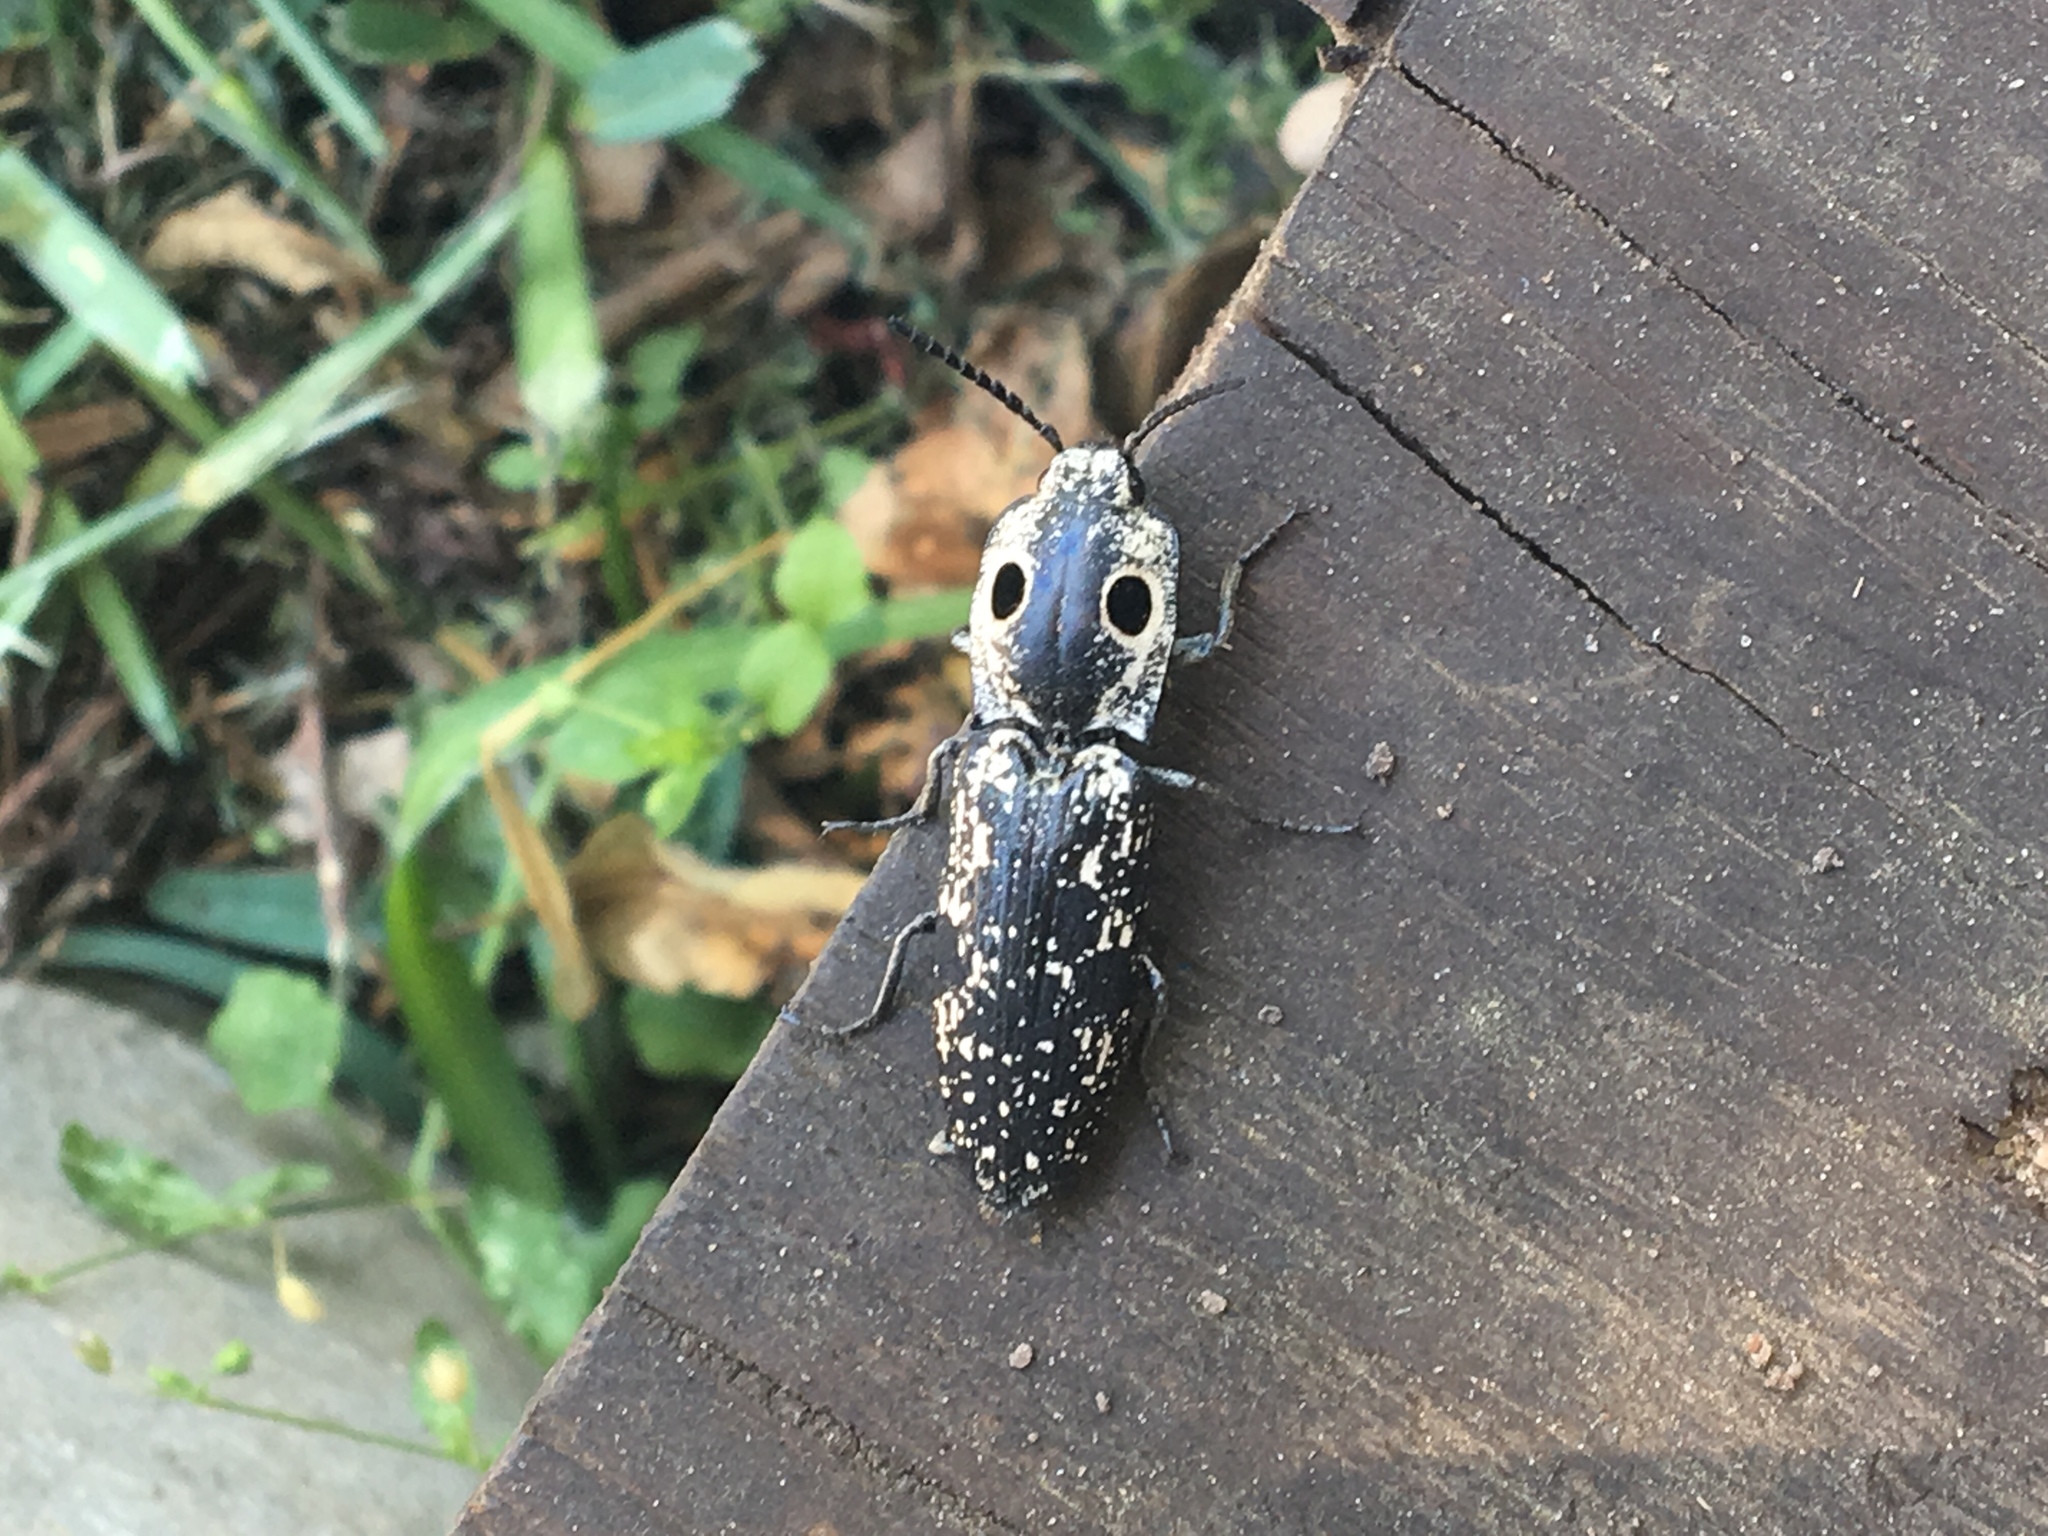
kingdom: Animalia
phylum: Arthropoda
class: Insecta
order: Coleoptera
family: Elateridae
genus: Alaus
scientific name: Alaus
